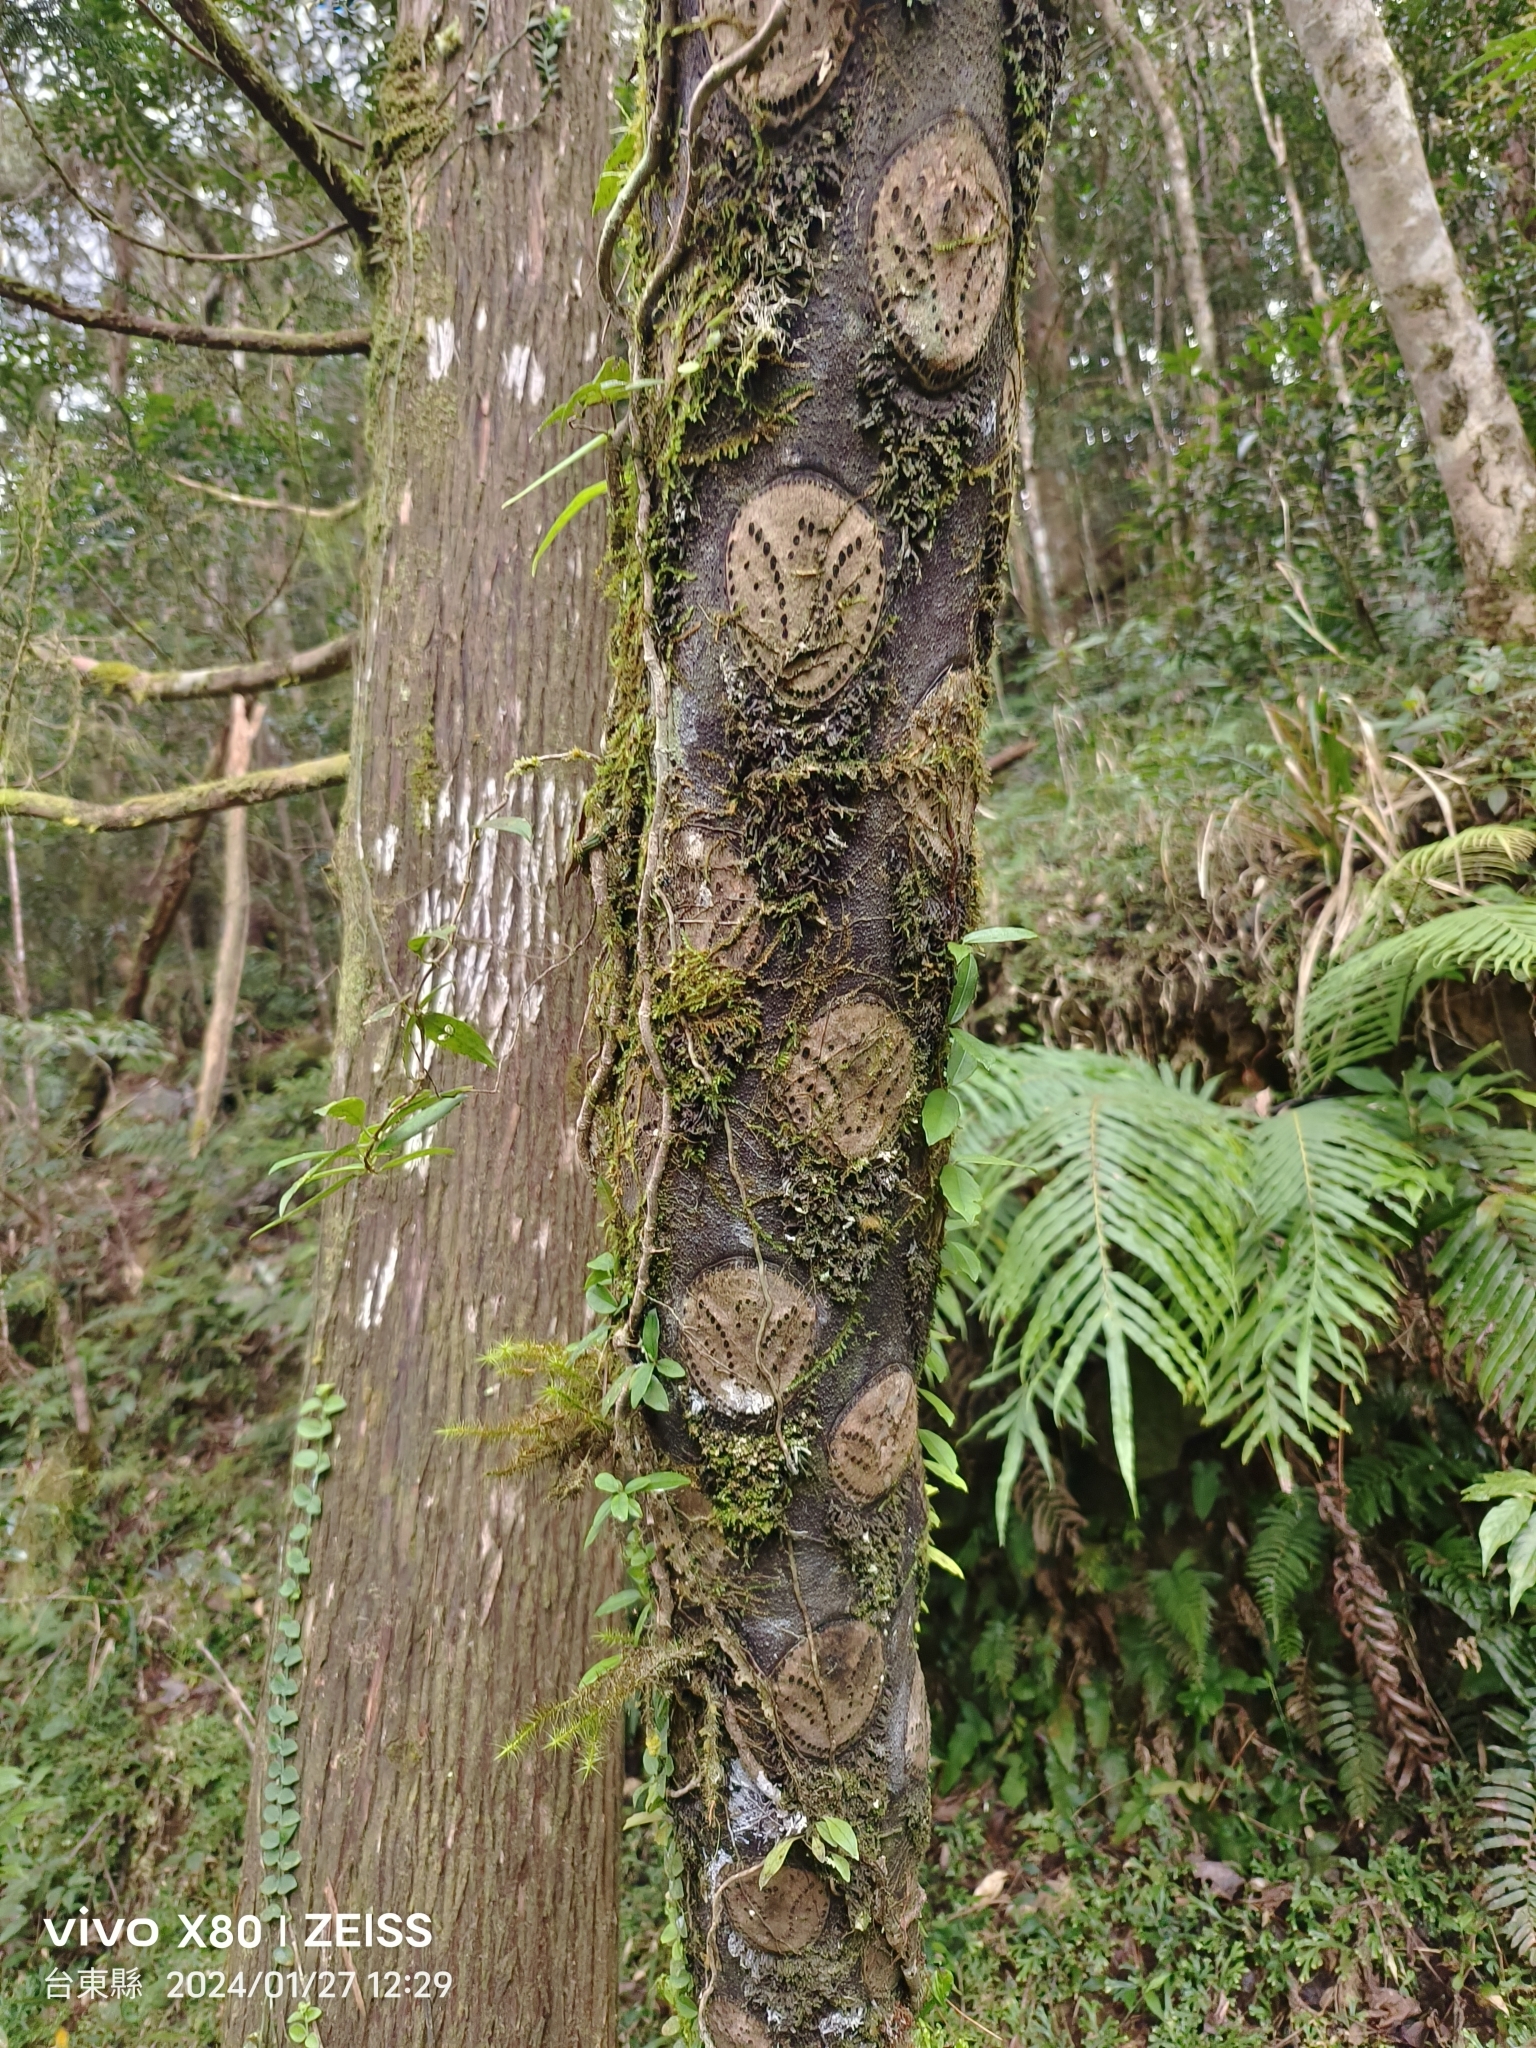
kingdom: Plantae
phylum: Tracheophyta
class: Polypodiopsida
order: Cyatheales
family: Cyatheaceae
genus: Alsophila
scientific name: Alsophila lepifera
